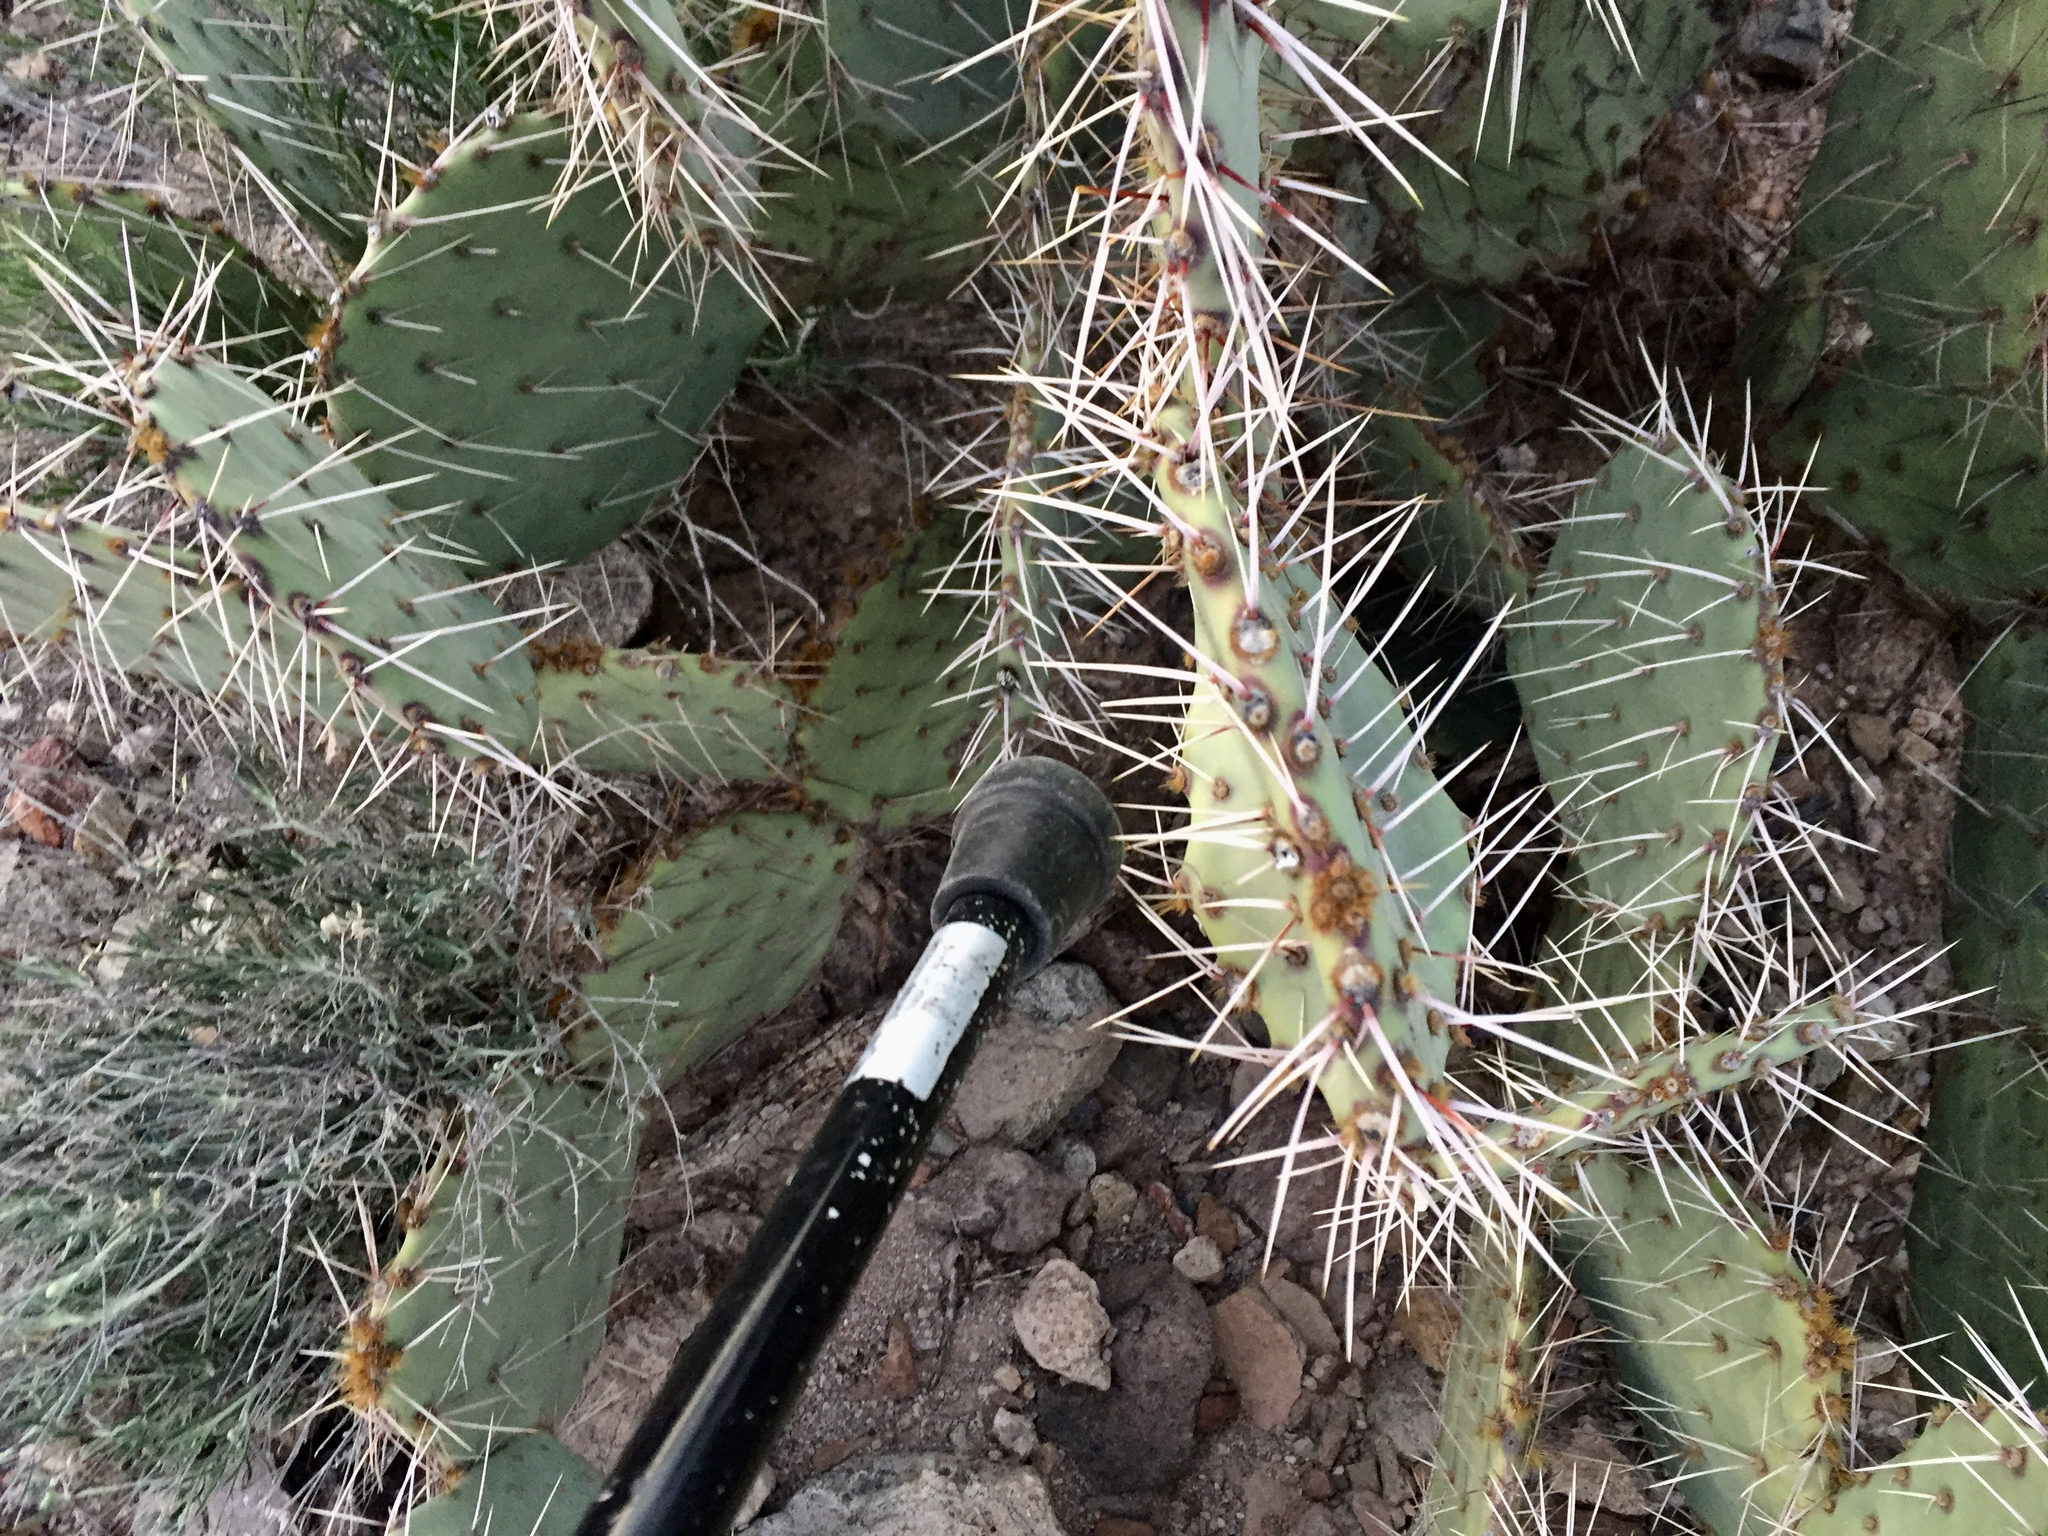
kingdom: Plantae
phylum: Tracheophyta
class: Magnoliopsida
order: Caryophyllales
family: Cactaceae
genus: Opuntia
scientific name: Opuntia engelmannii
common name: Cactus-apple
